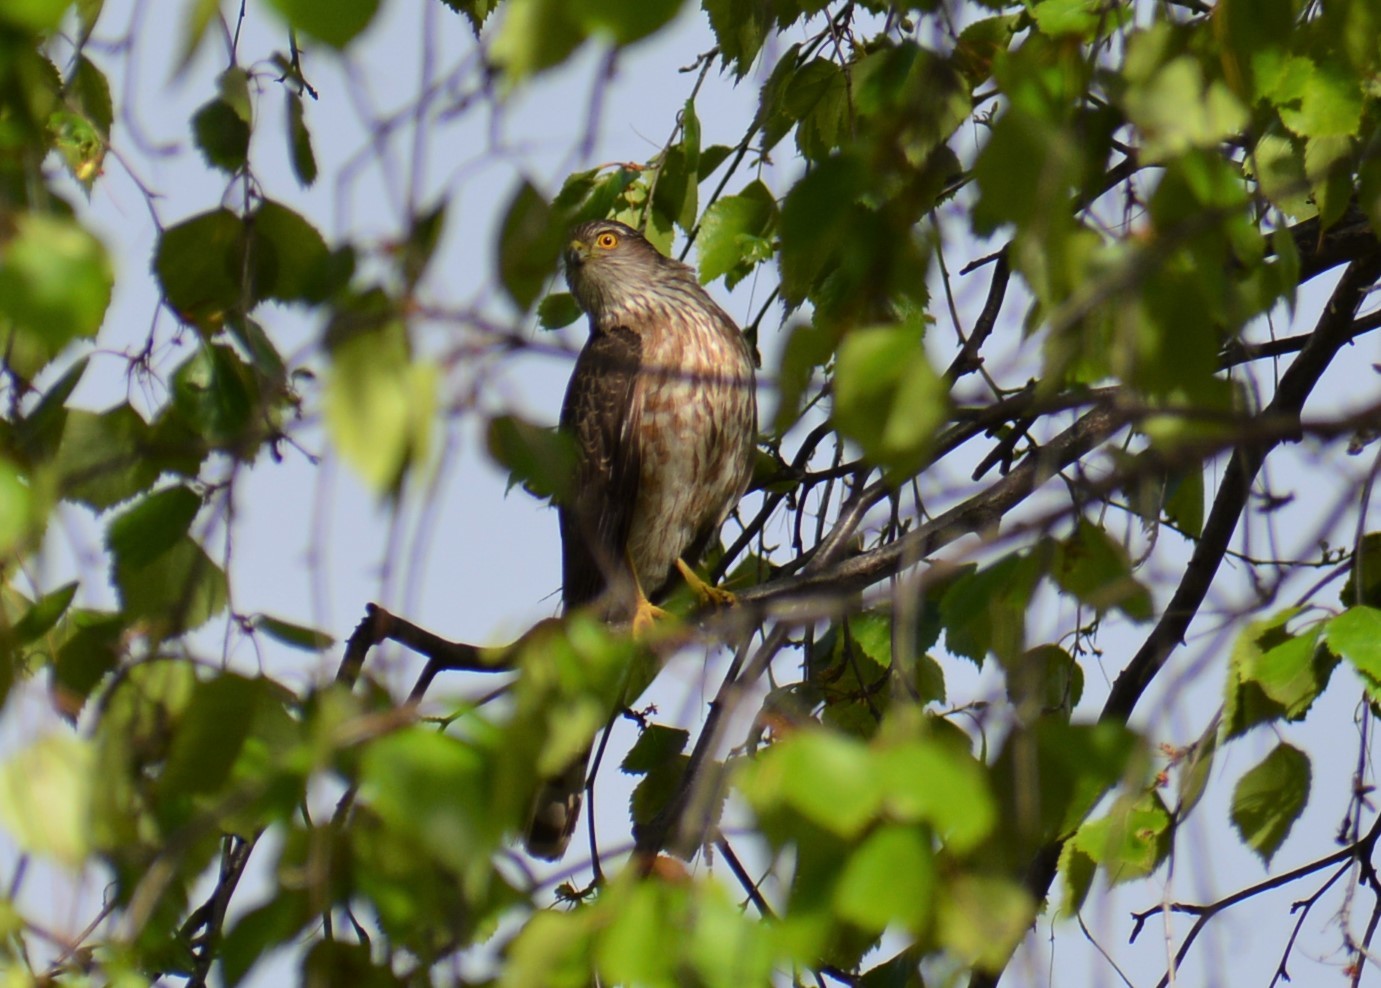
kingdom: Animalia
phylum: Chordata
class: Aves
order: Accipitriformes
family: Accipitridae
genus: Accipiter
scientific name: Accipiter striatus
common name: Sharp-shinned hawk
